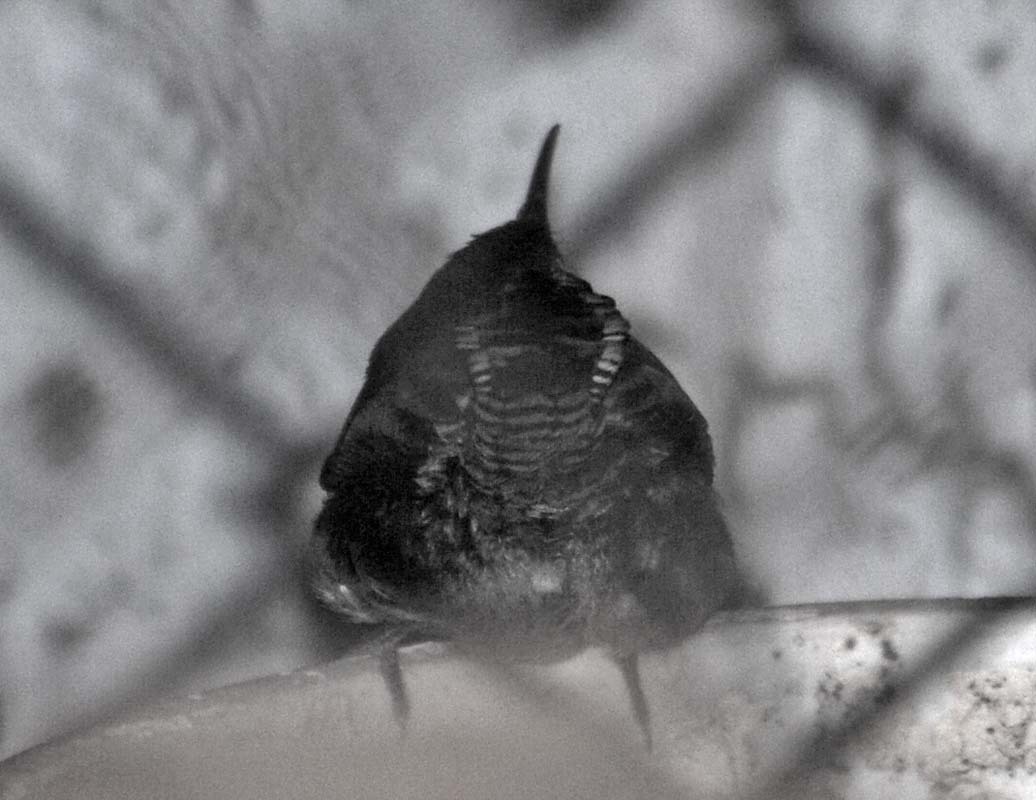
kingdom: Animalia
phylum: Chordata
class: Aves
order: Passeriformes
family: Troglodytidae
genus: Thryomanes
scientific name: Thryomanes bewickii
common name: Bewick's wren
